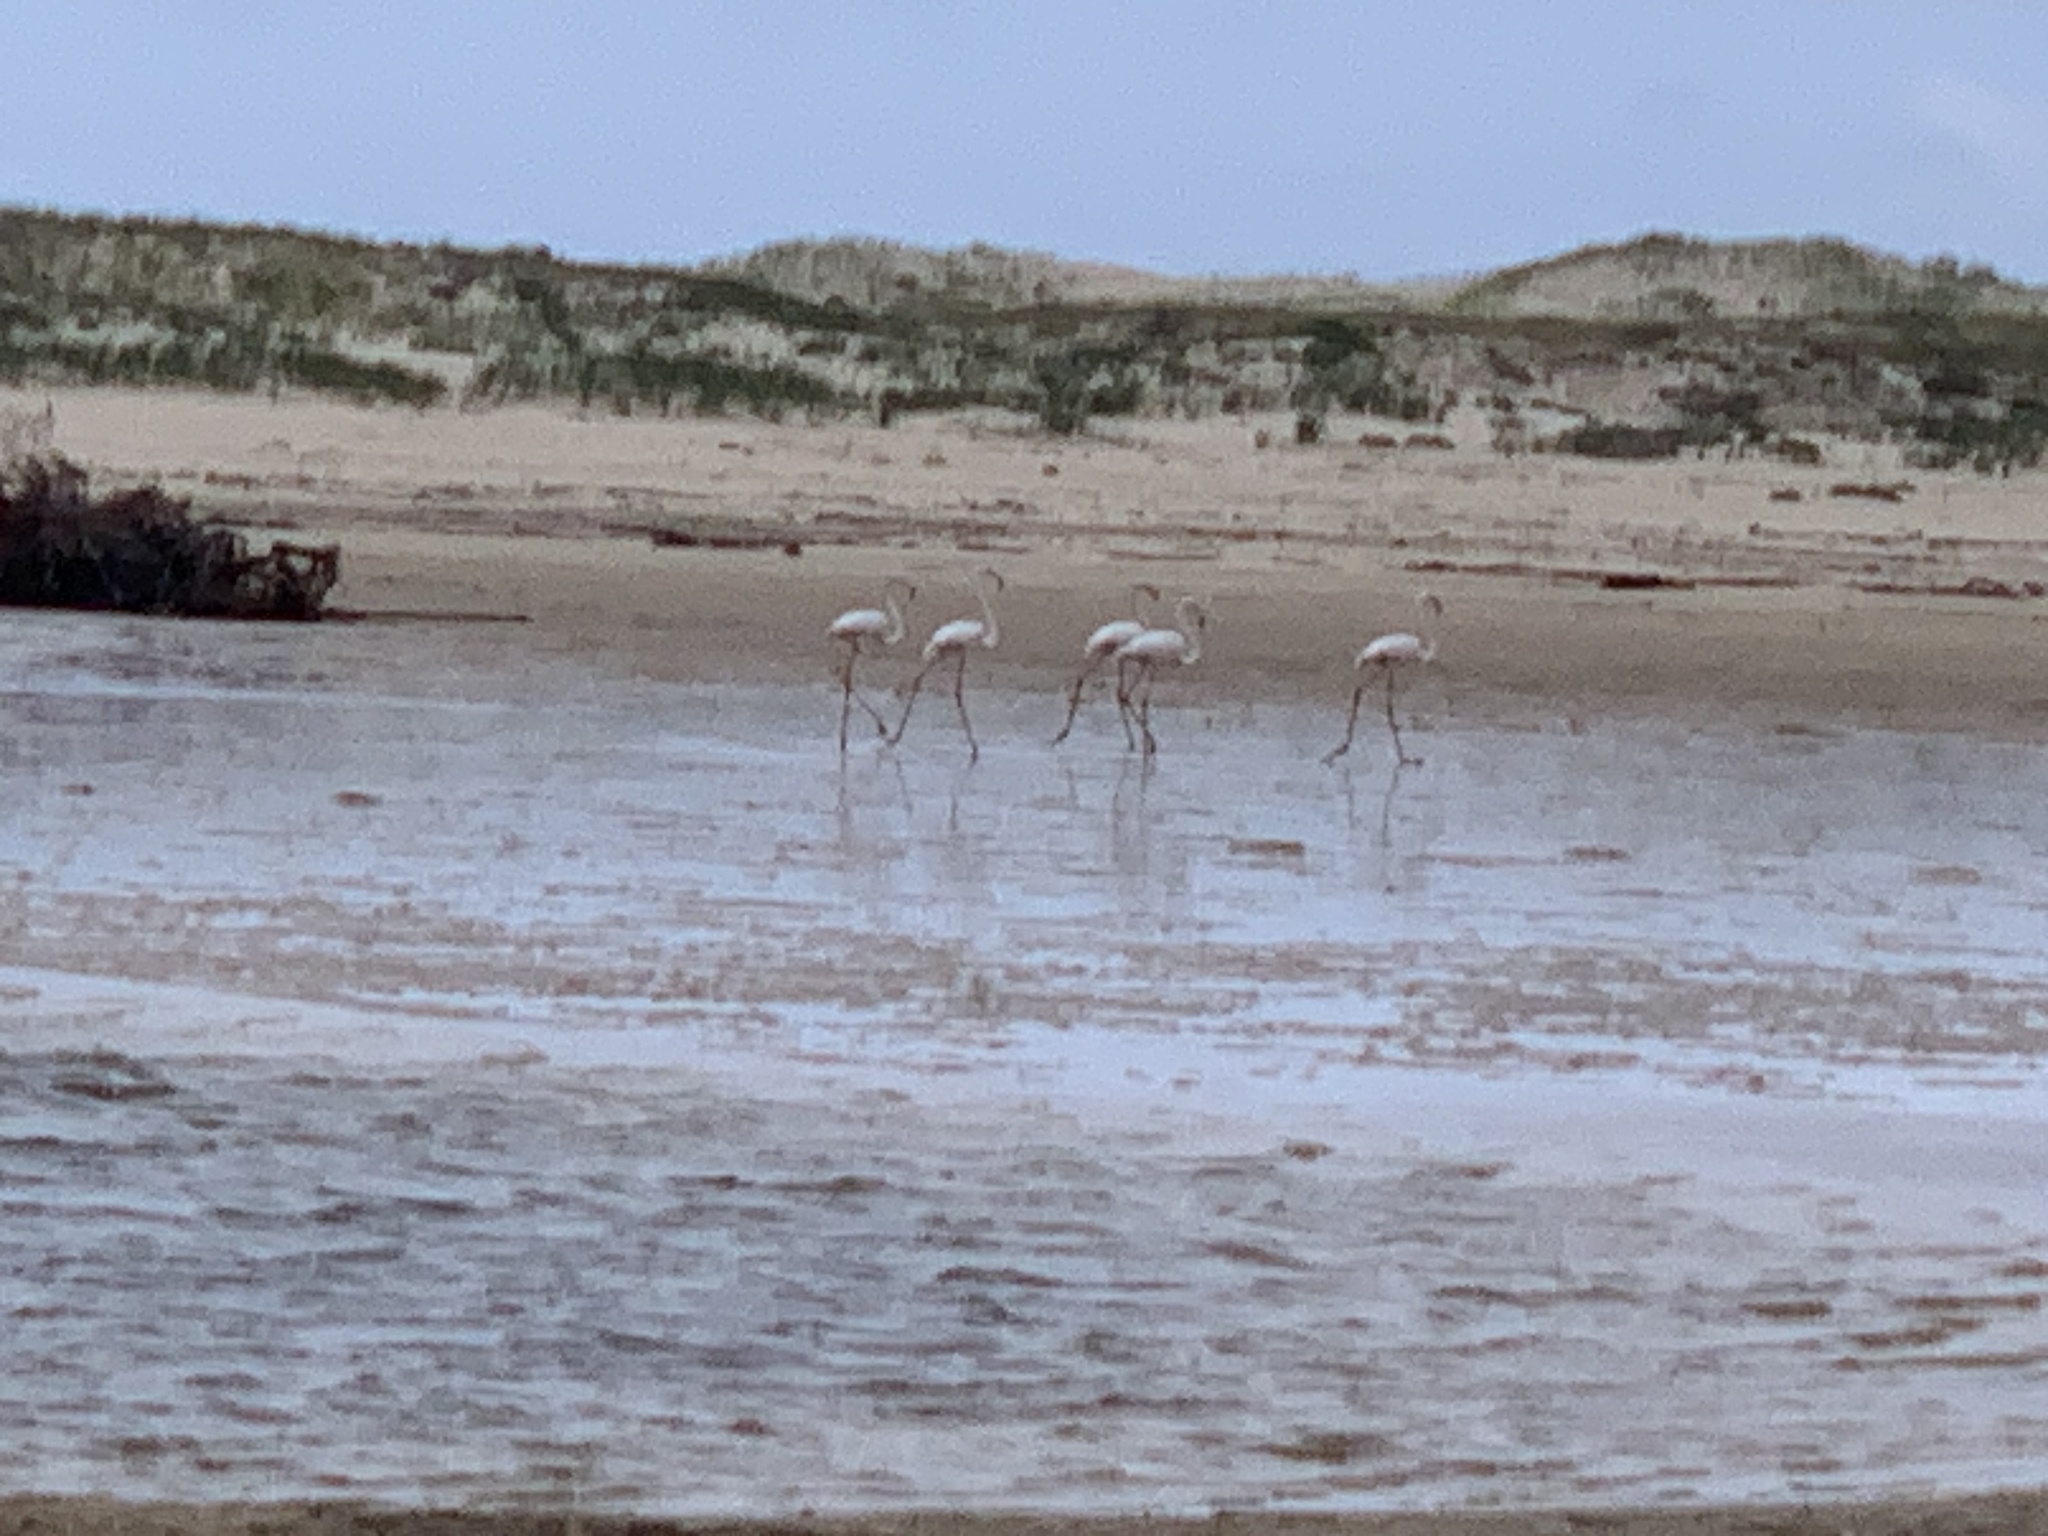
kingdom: Animalia
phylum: Chordata
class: Aves
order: Phoenicopteriformes
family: Phoenicopteridae
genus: Phoenicopterus
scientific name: Phoenicopterus roseus
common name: Greater flamingo
